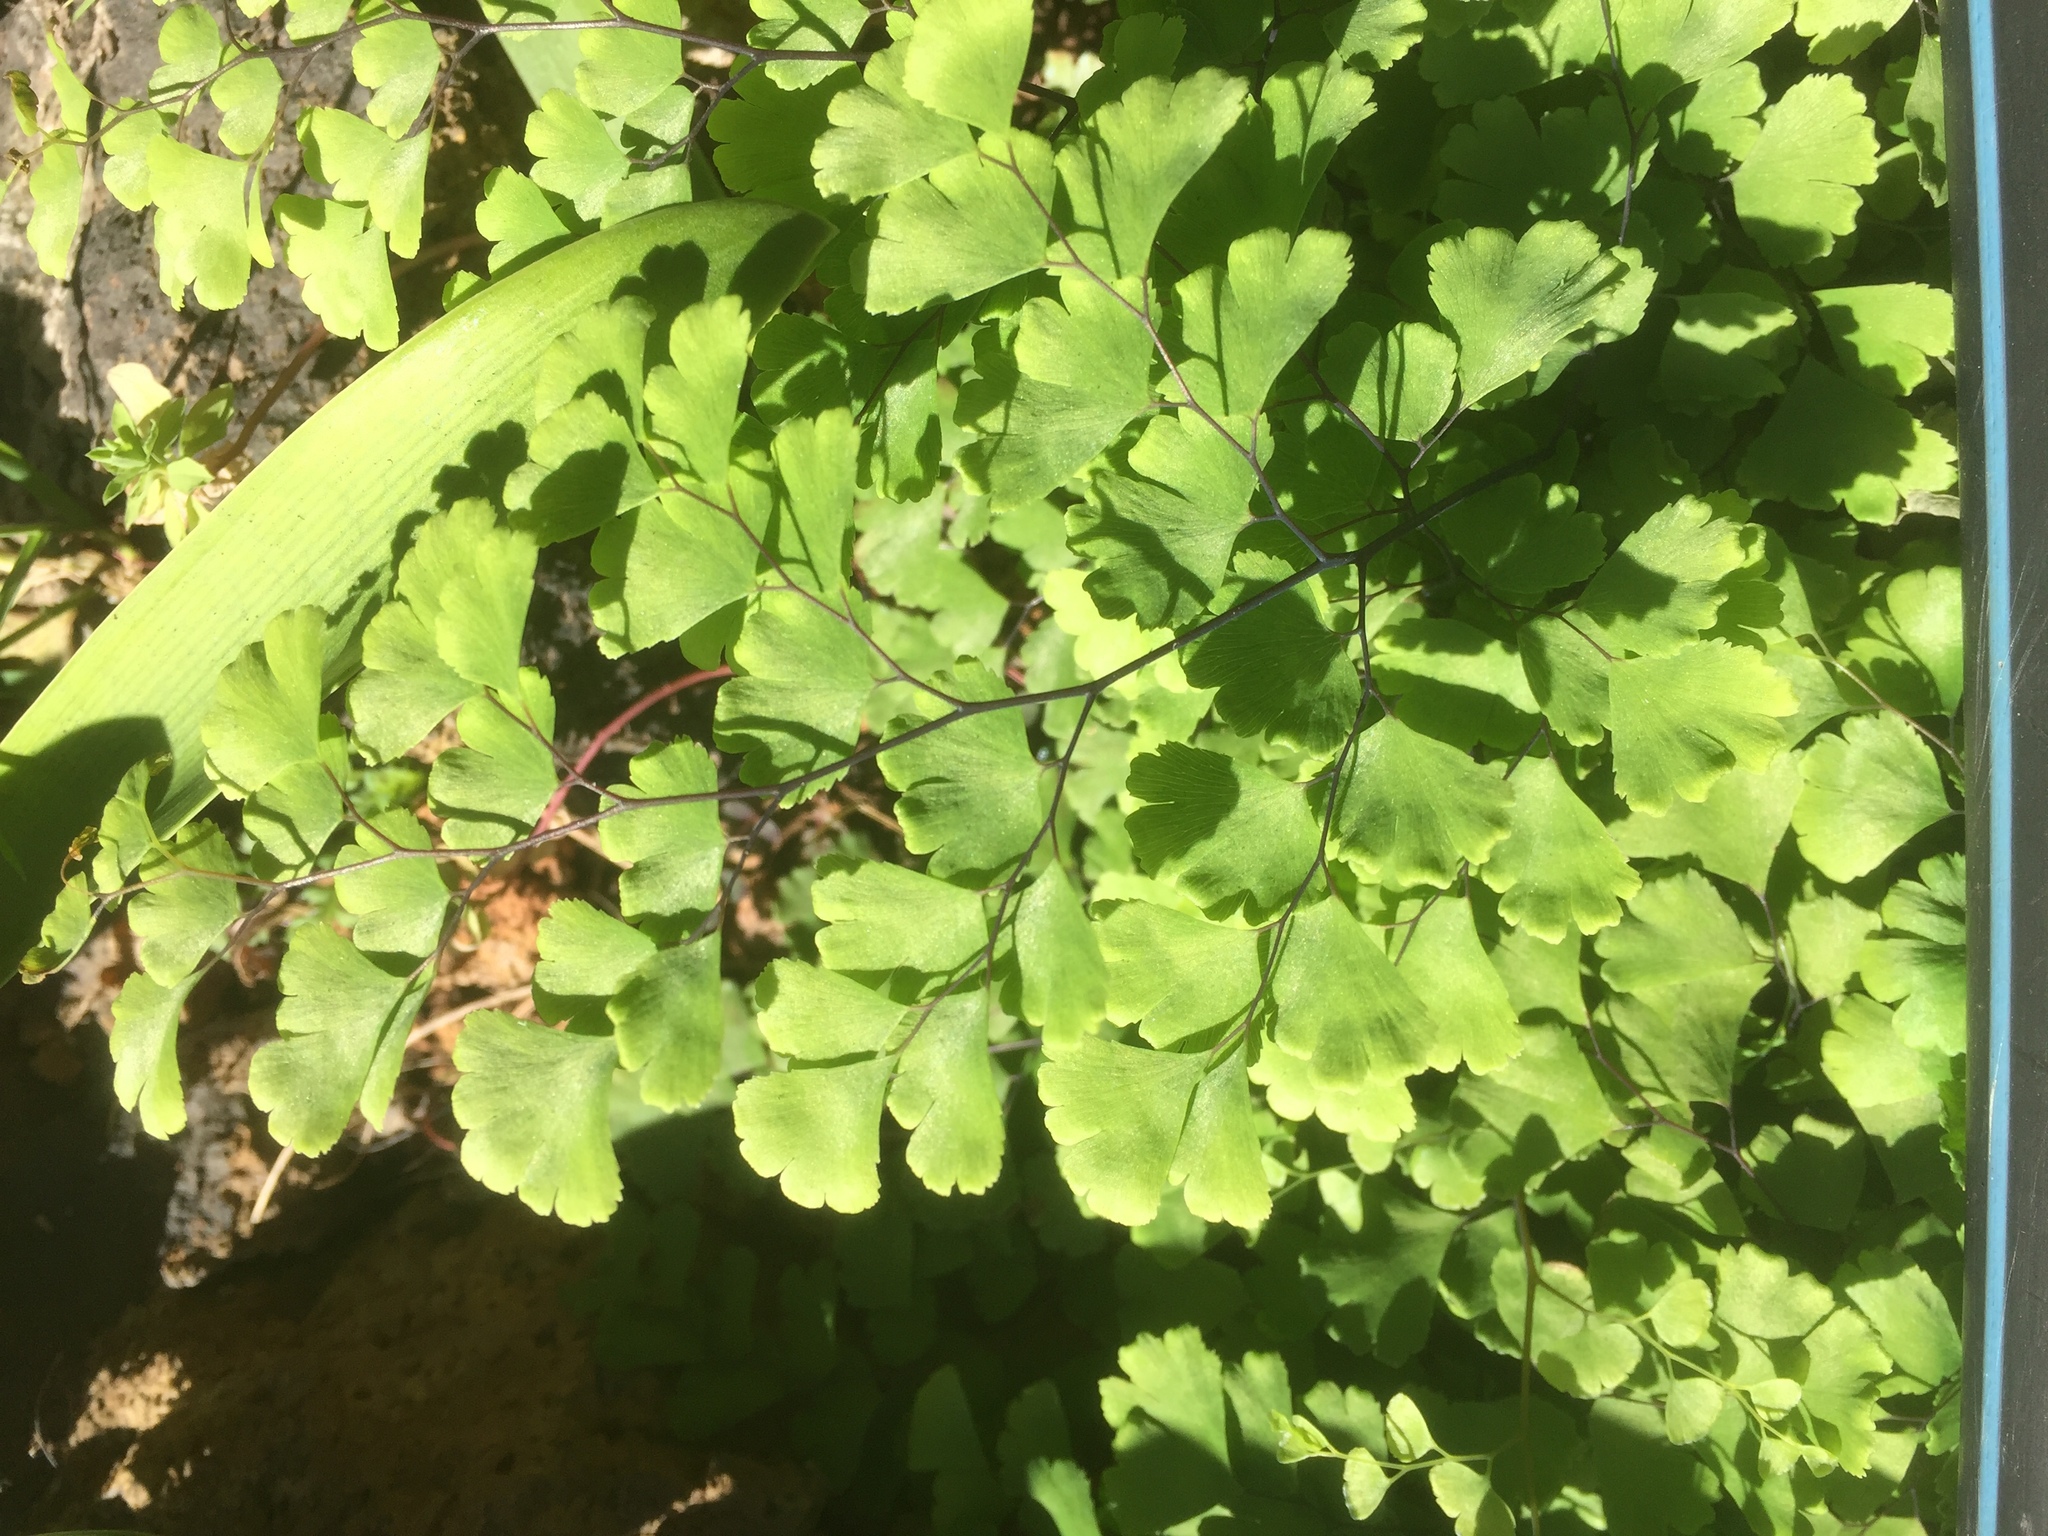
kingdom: Plantae
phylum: Tracheophyta
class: Polypodiopsida
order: Polypodiales
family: Pteridaceae
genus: Adiantum
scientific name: Adiantum capillus-veneris
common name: Maidenhair fern
